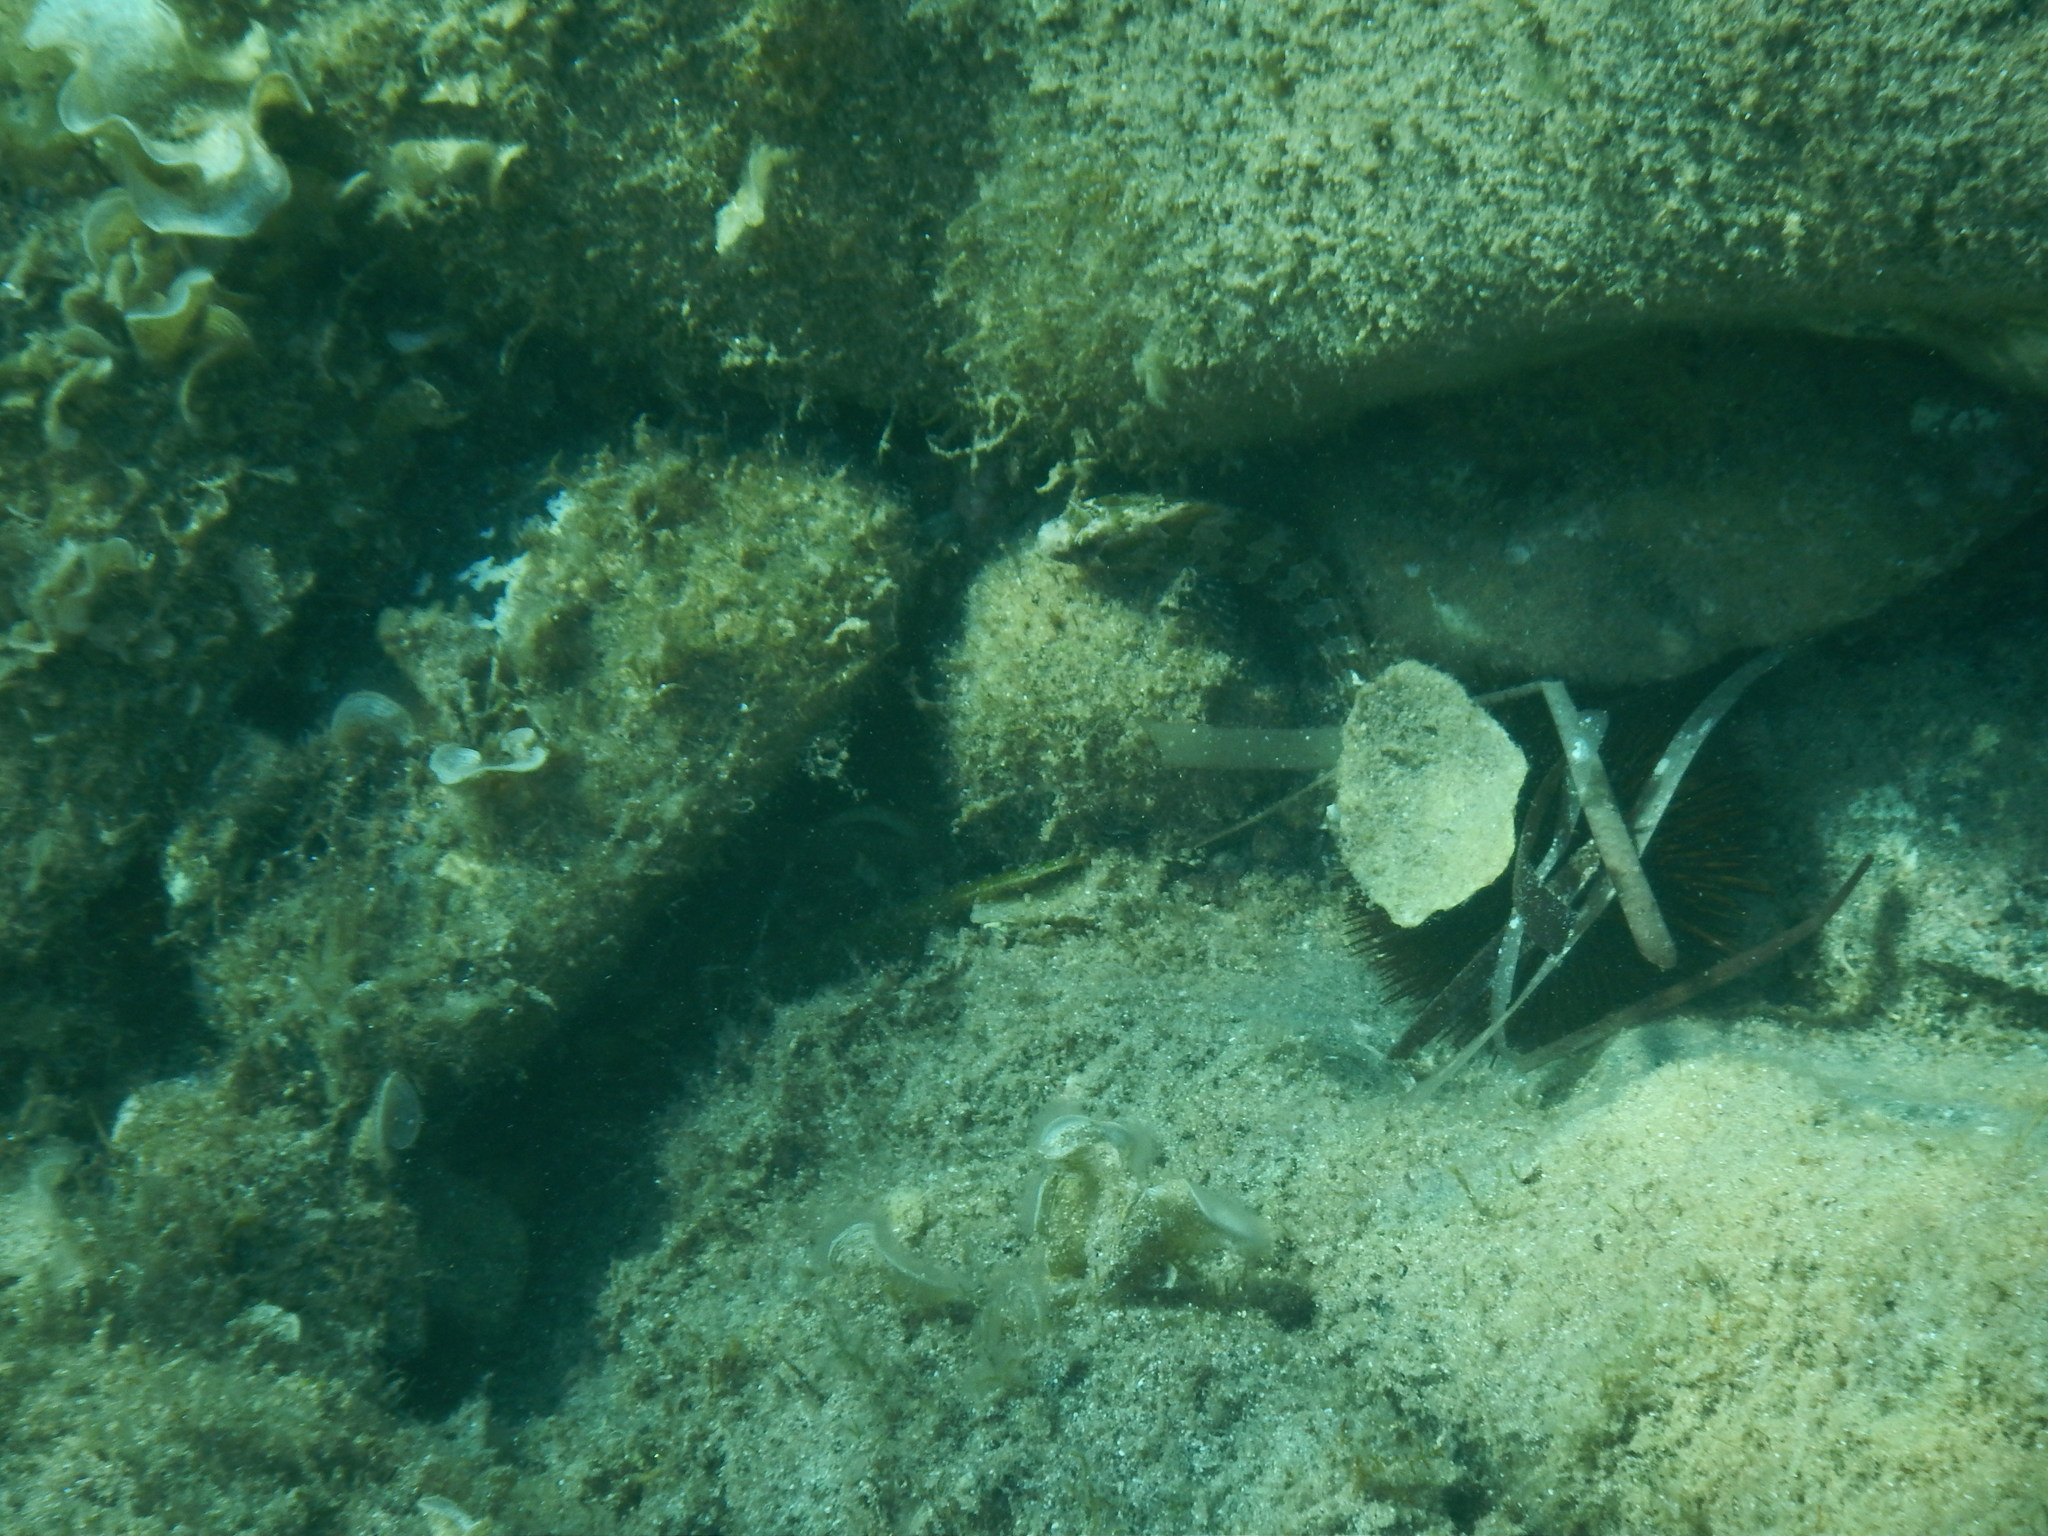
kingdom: Animalia
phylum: Chordata
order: Perciformes
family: Blenniidae
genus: Parablennius
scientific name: Parablennius gattorugine
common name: Tompot blenny
